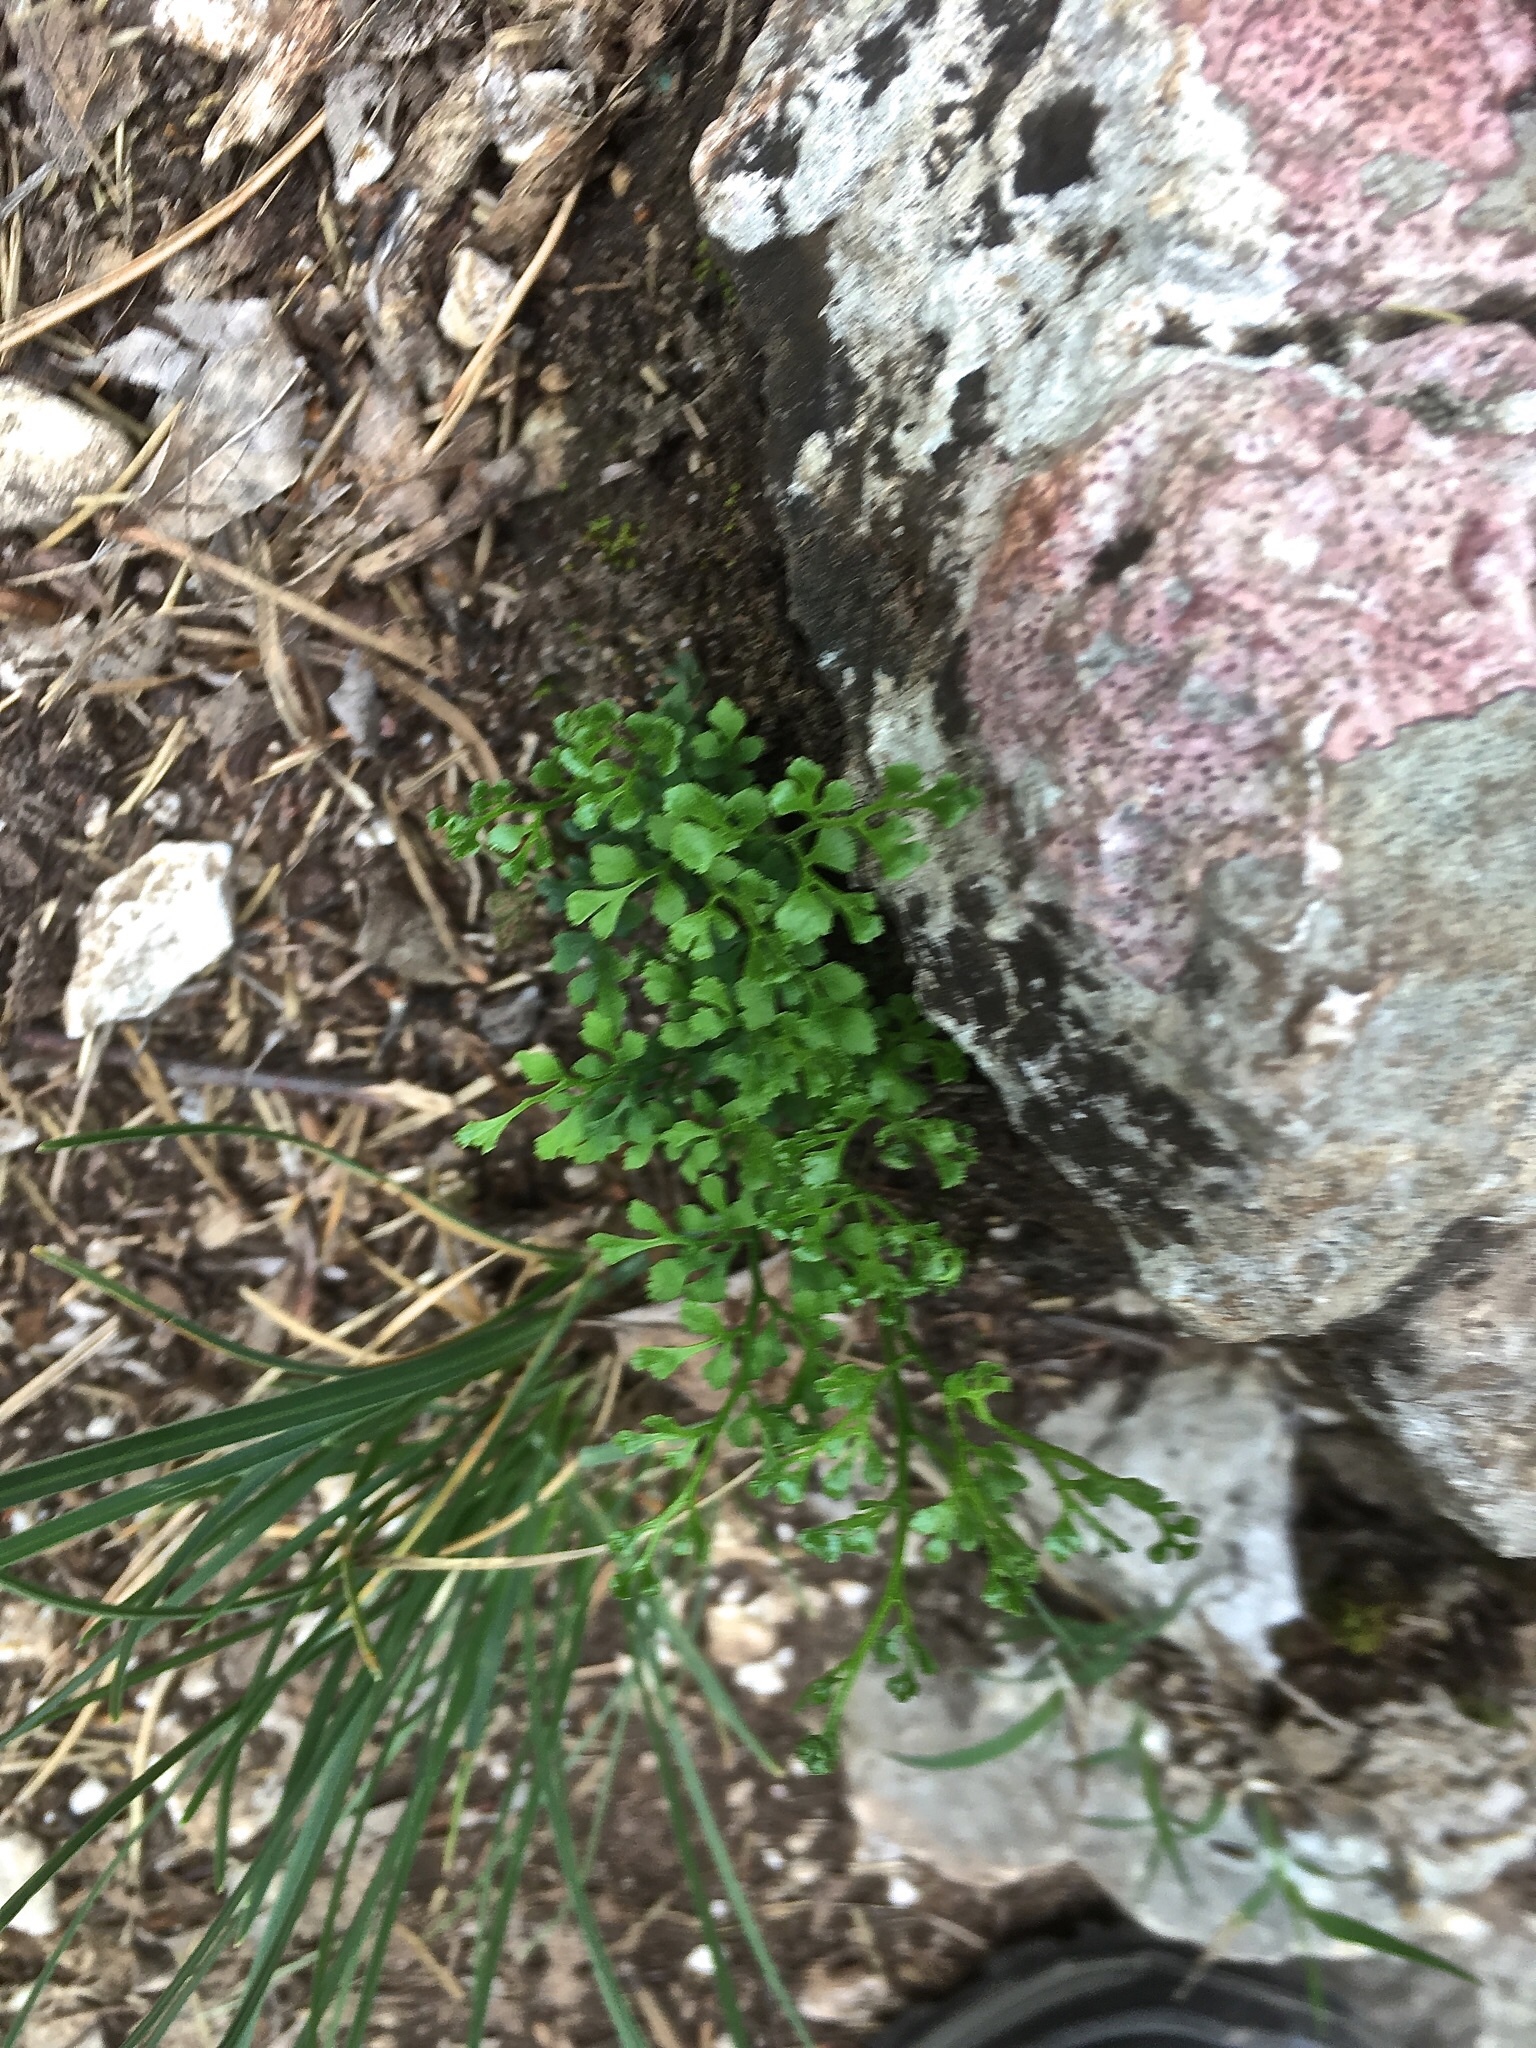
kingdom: Plantae
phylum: Tracheophyta
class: Polypodiopsida
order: Polypodiales
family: Aspleniaceae
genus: Asplenium
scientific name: Asplenium ruta-muraria
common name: Wall-rue
